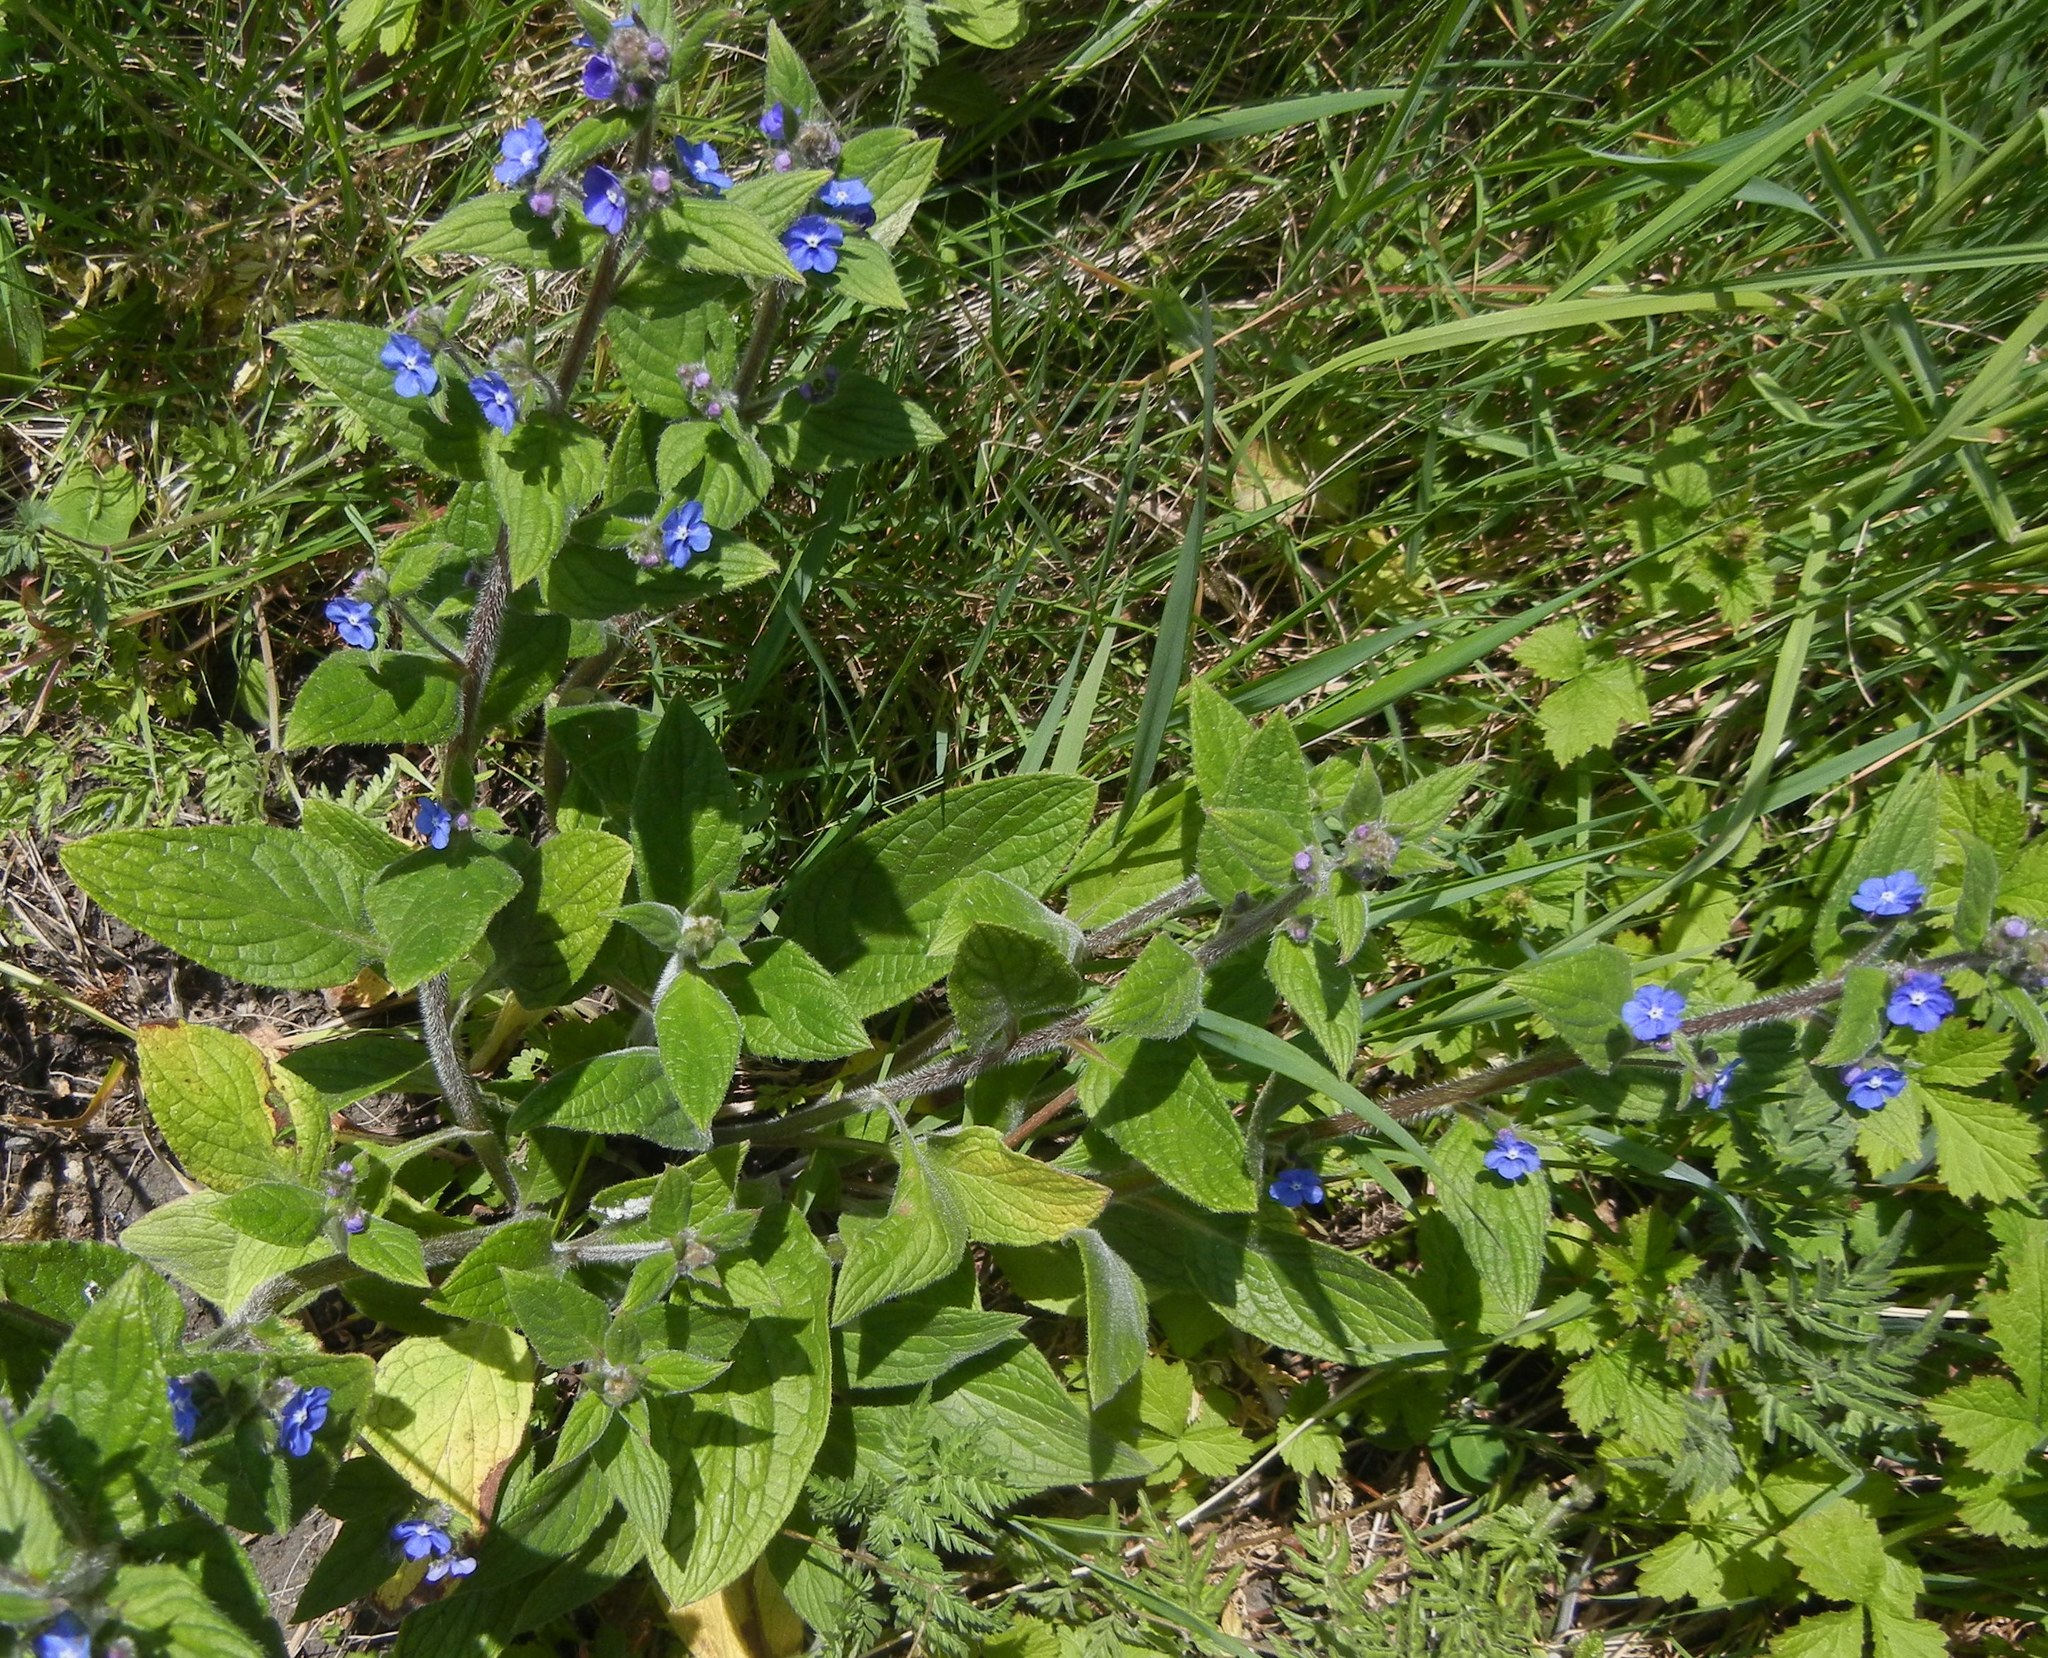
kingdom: Plantae
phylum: Tracheophyta
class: Magnoliopsida
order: Boraginales
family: Boraginaceae
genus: Pentaglottis
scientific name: Pentaglottis sempervirens
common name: Green alkanet
